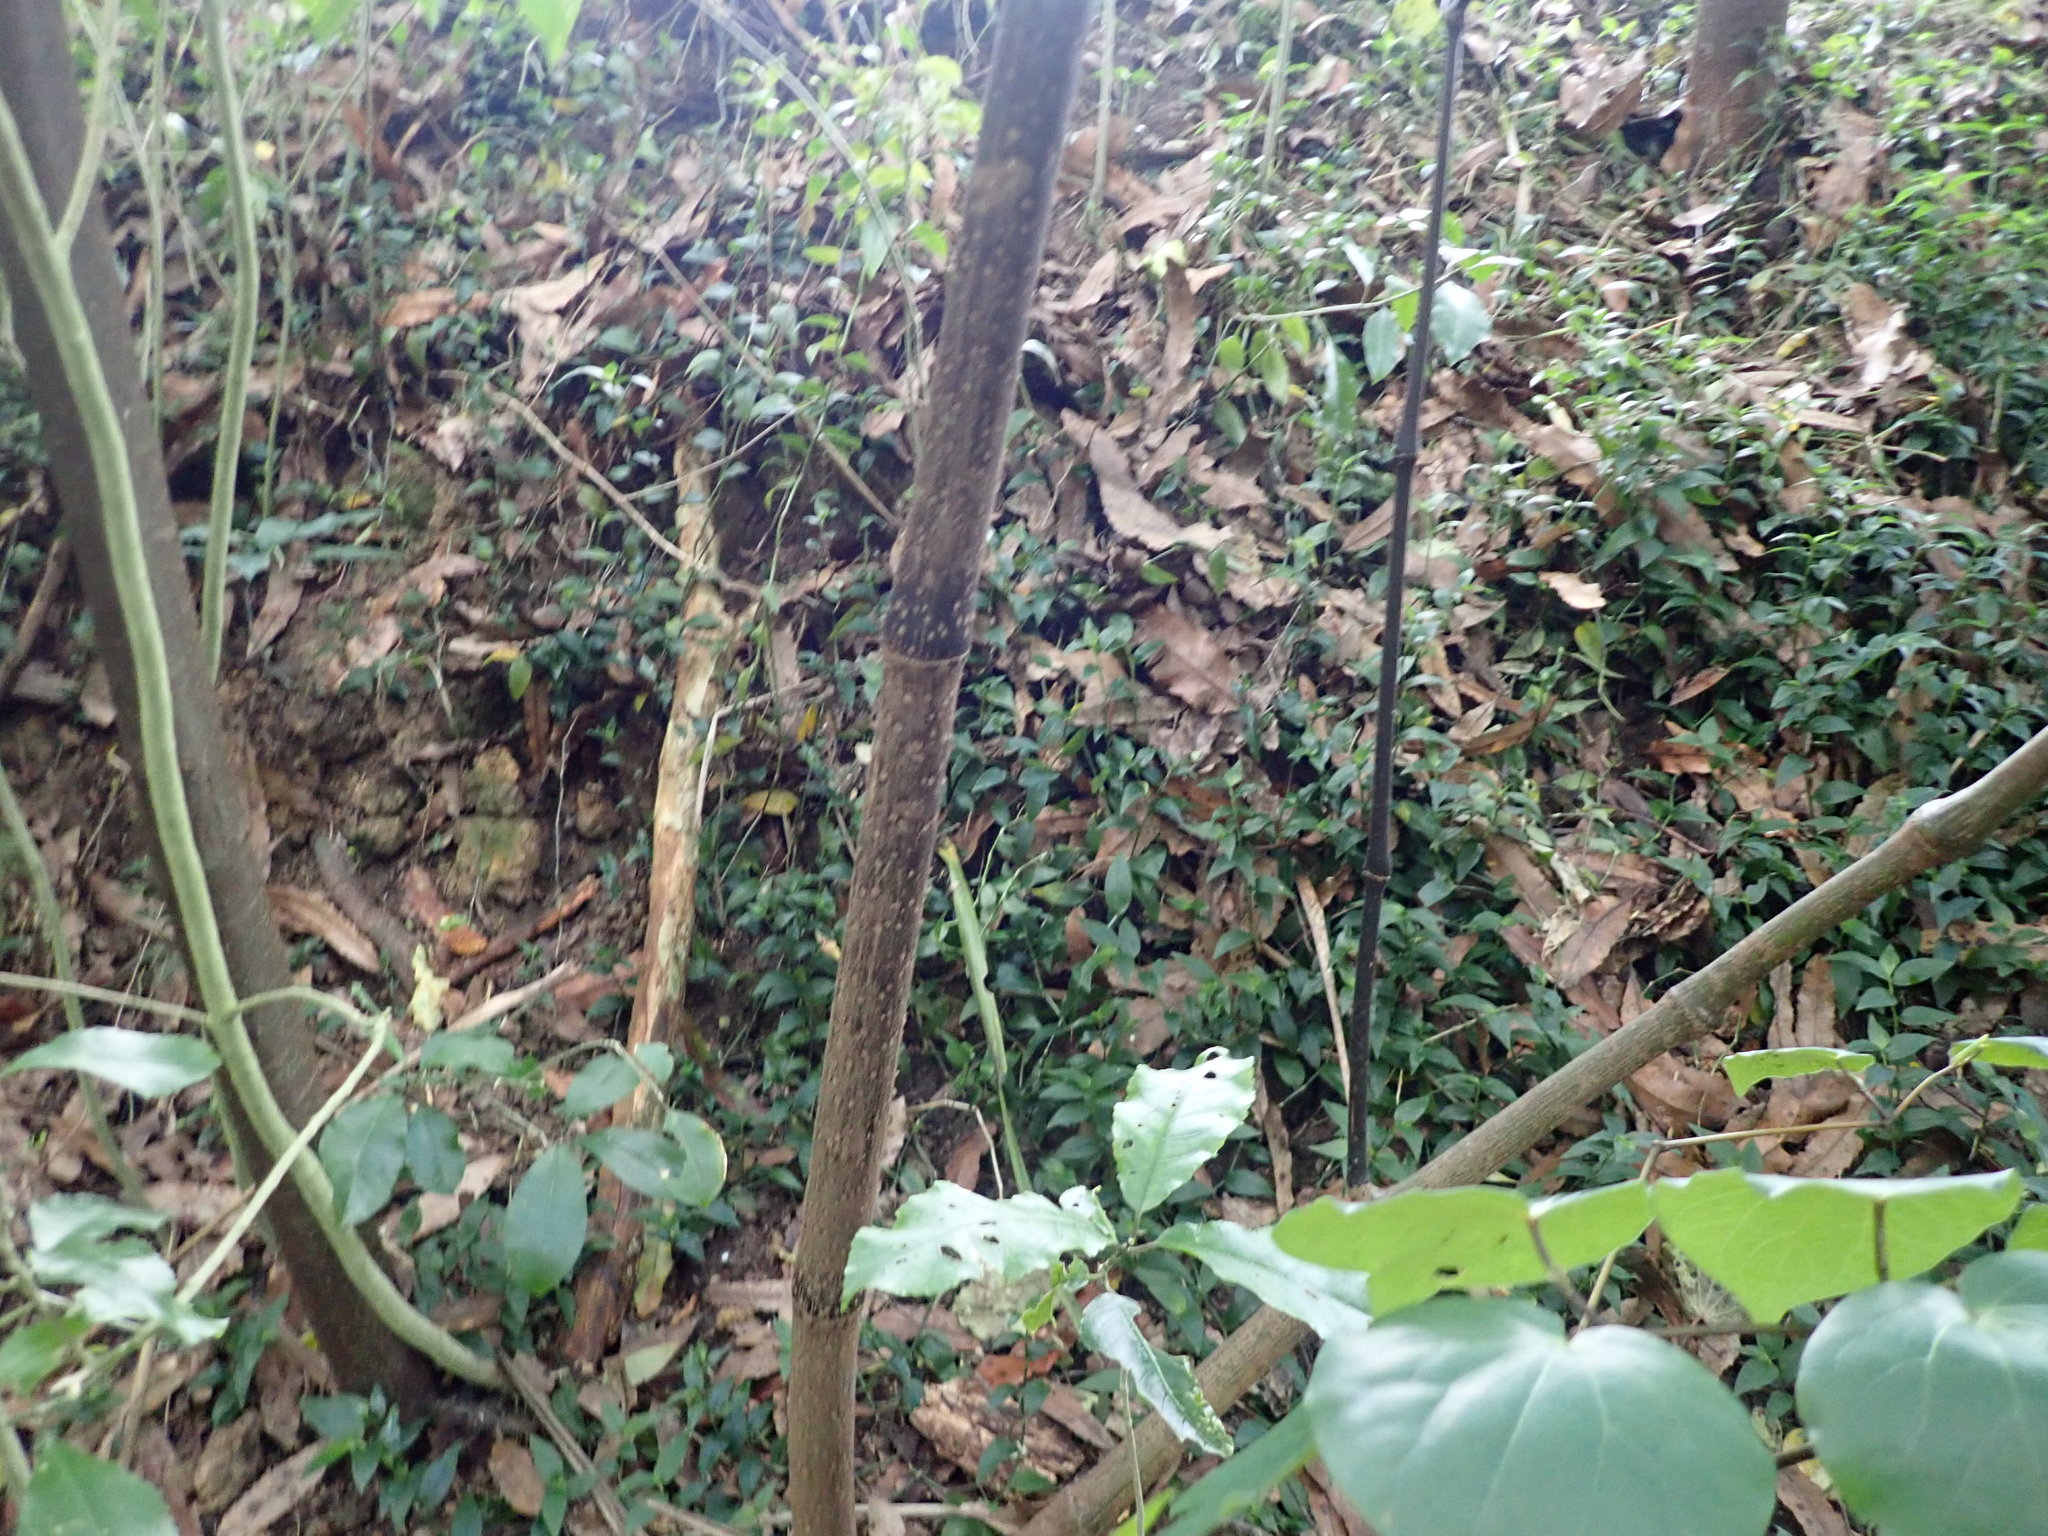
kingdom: Plantae
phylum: Tracheophyta
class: Magnoliopsida
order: Piperales
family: Piperaceae
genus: Macropiper
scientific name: Macropiper excelsum
